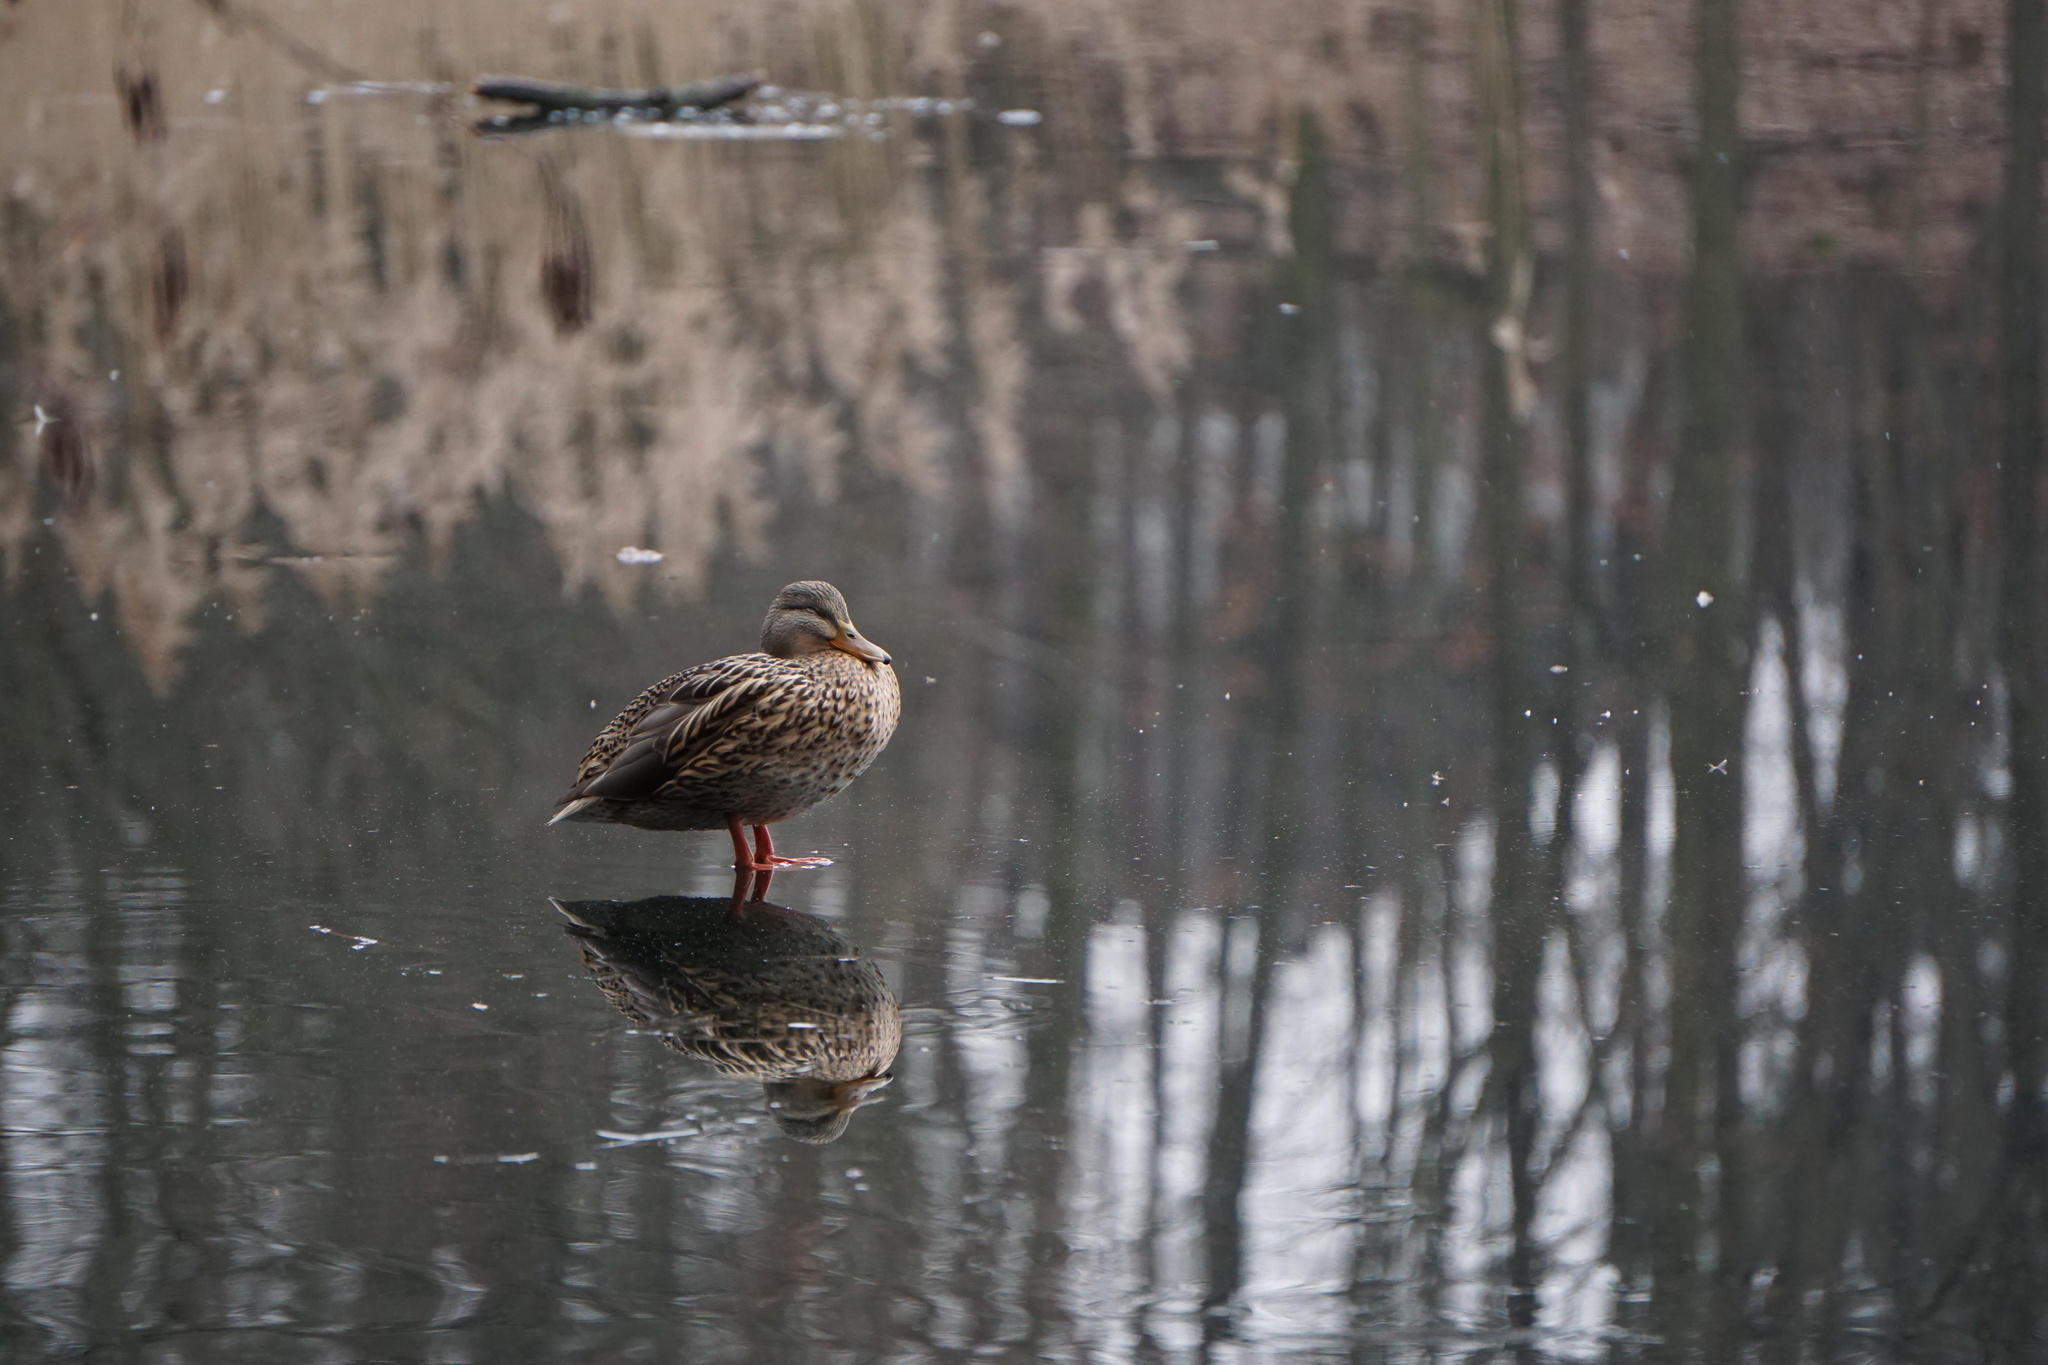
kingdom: Animalia
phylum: Chordata
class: Aves
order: Anseriformes
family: Anatidae
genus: Anas
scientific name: Anas platyrhynchos
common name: Mallard
